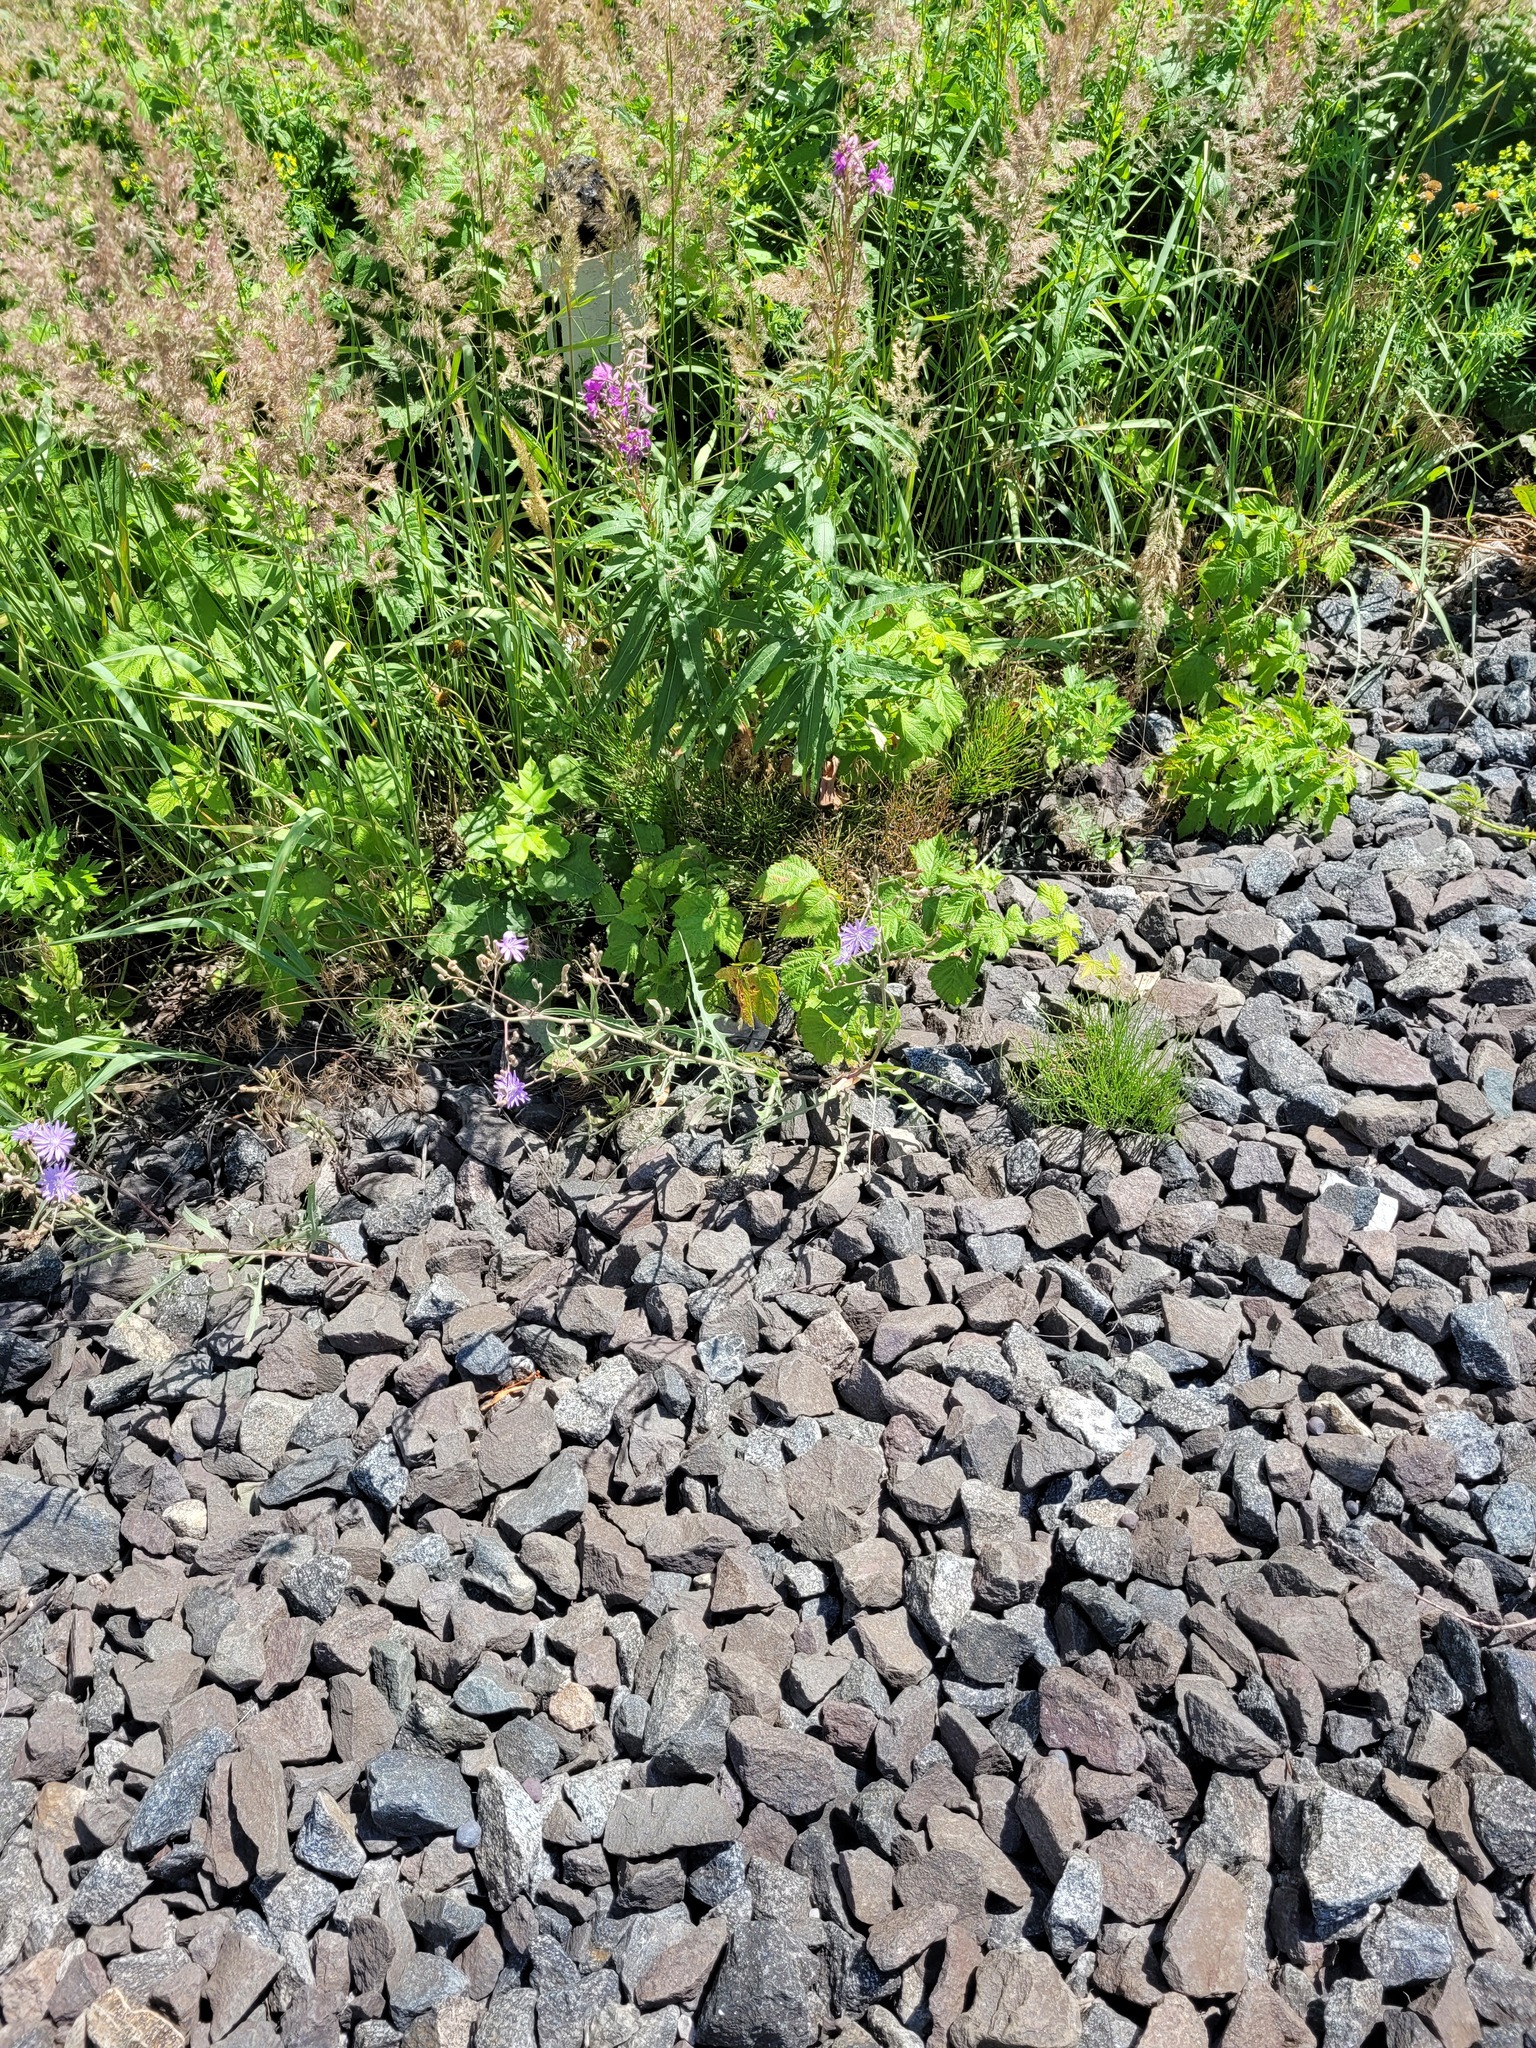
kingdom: Plantae
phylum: Tracheophyta
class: Magnoliopsida
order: Asterales
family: Asteraceae
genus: Lactuca
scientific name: Lactuca tatarica
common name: Blue lettuce
